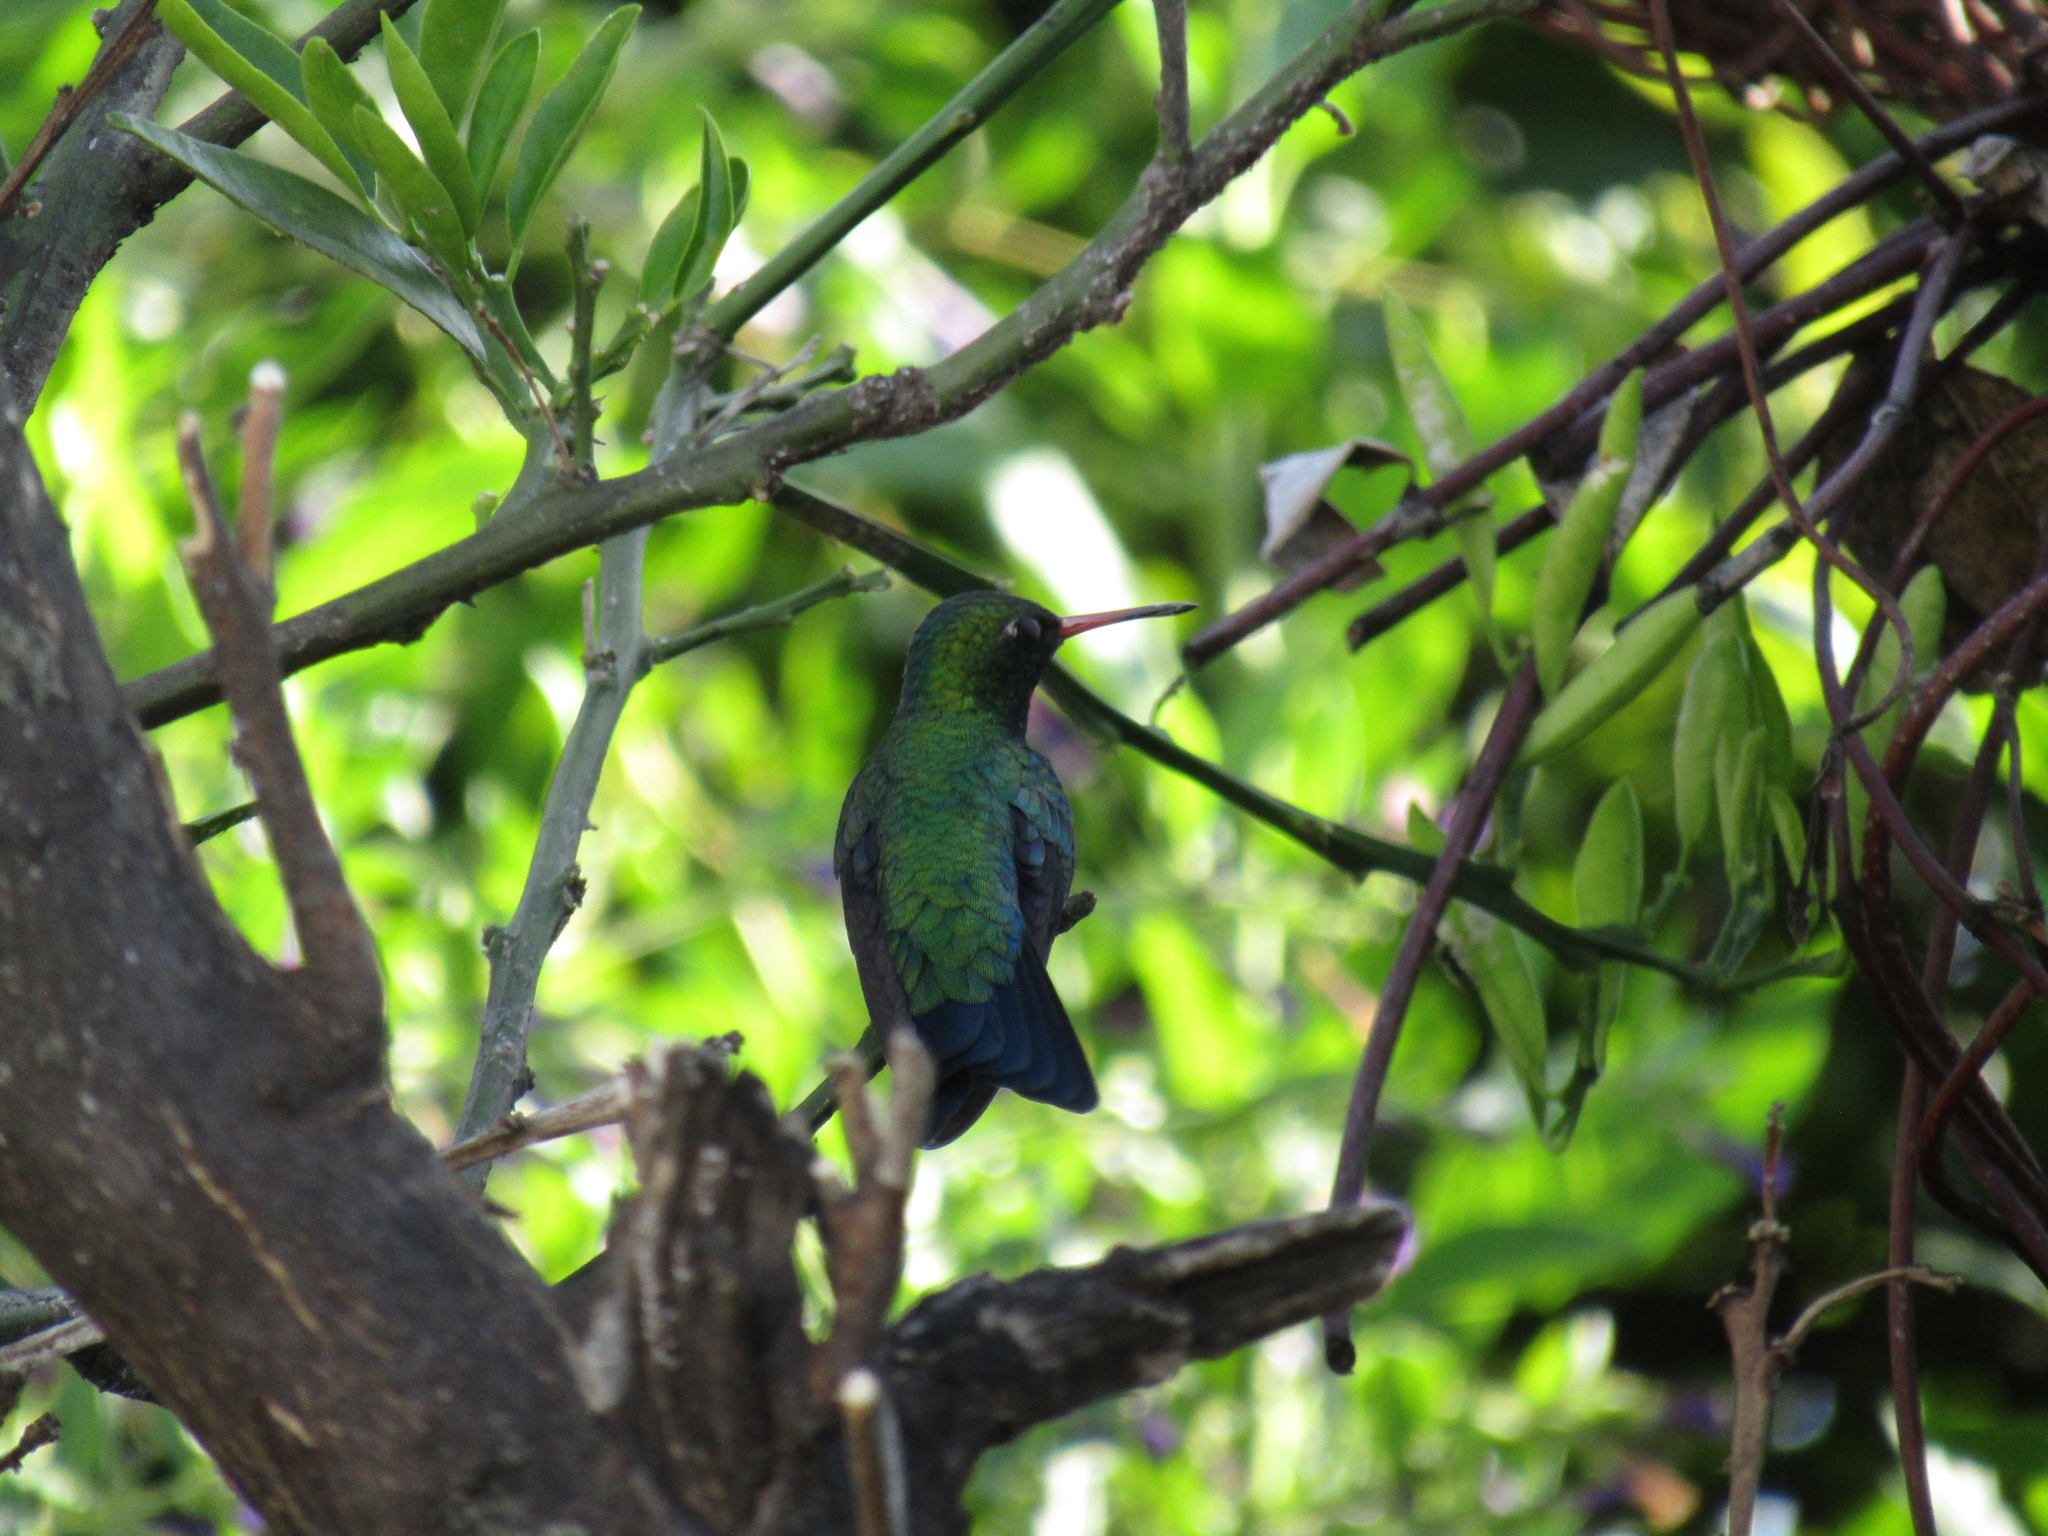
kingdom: Animalia
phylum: Chordata
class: Aves
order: Apodiformes
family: Trochilidae
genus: Chlorostilbon
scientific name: Chlorostilbon lucidus
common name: Glittering-bellied emerald
